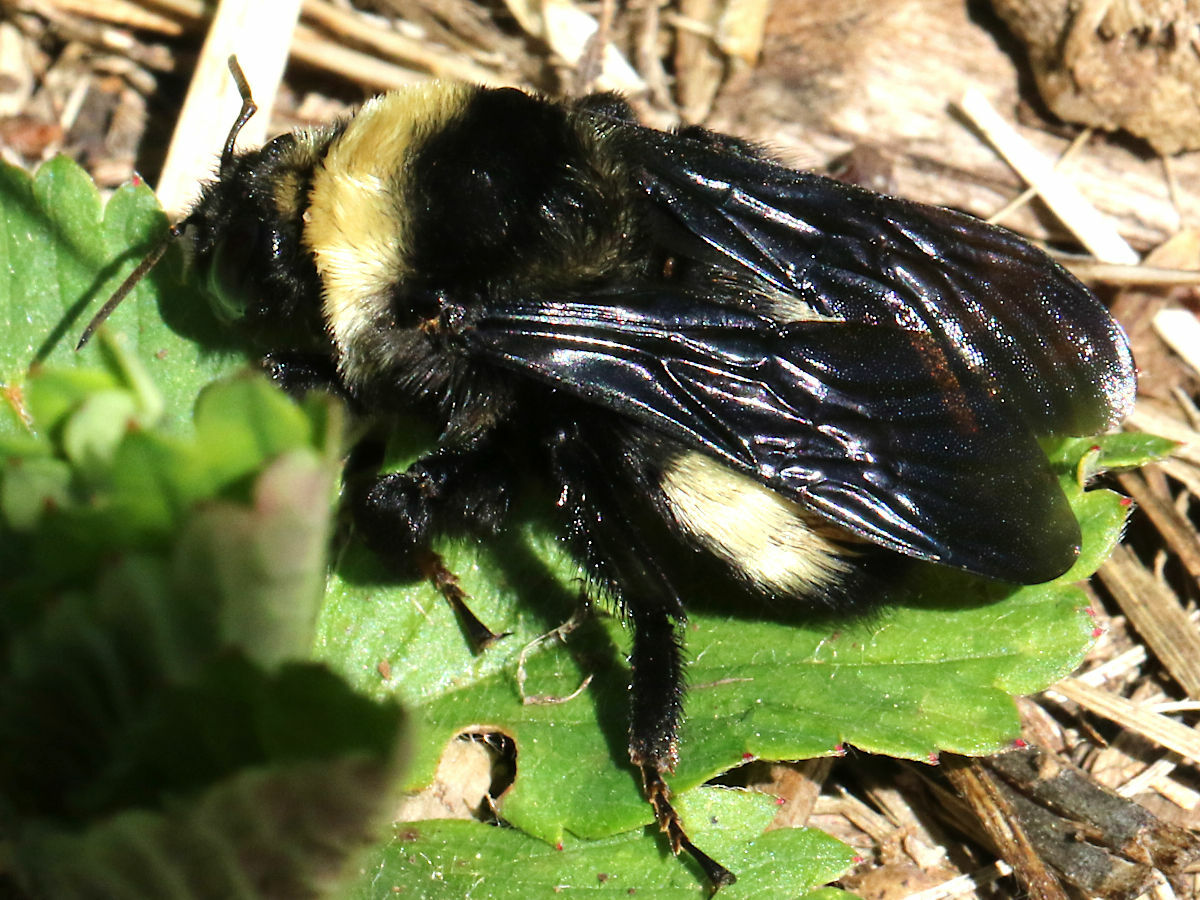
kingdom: Animalia
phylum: Arthropoda
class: Insecta
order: Hymenoptera
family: Apidae
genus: Bombus
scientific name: Bombus auricomus
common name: Black and gold bumble bee
